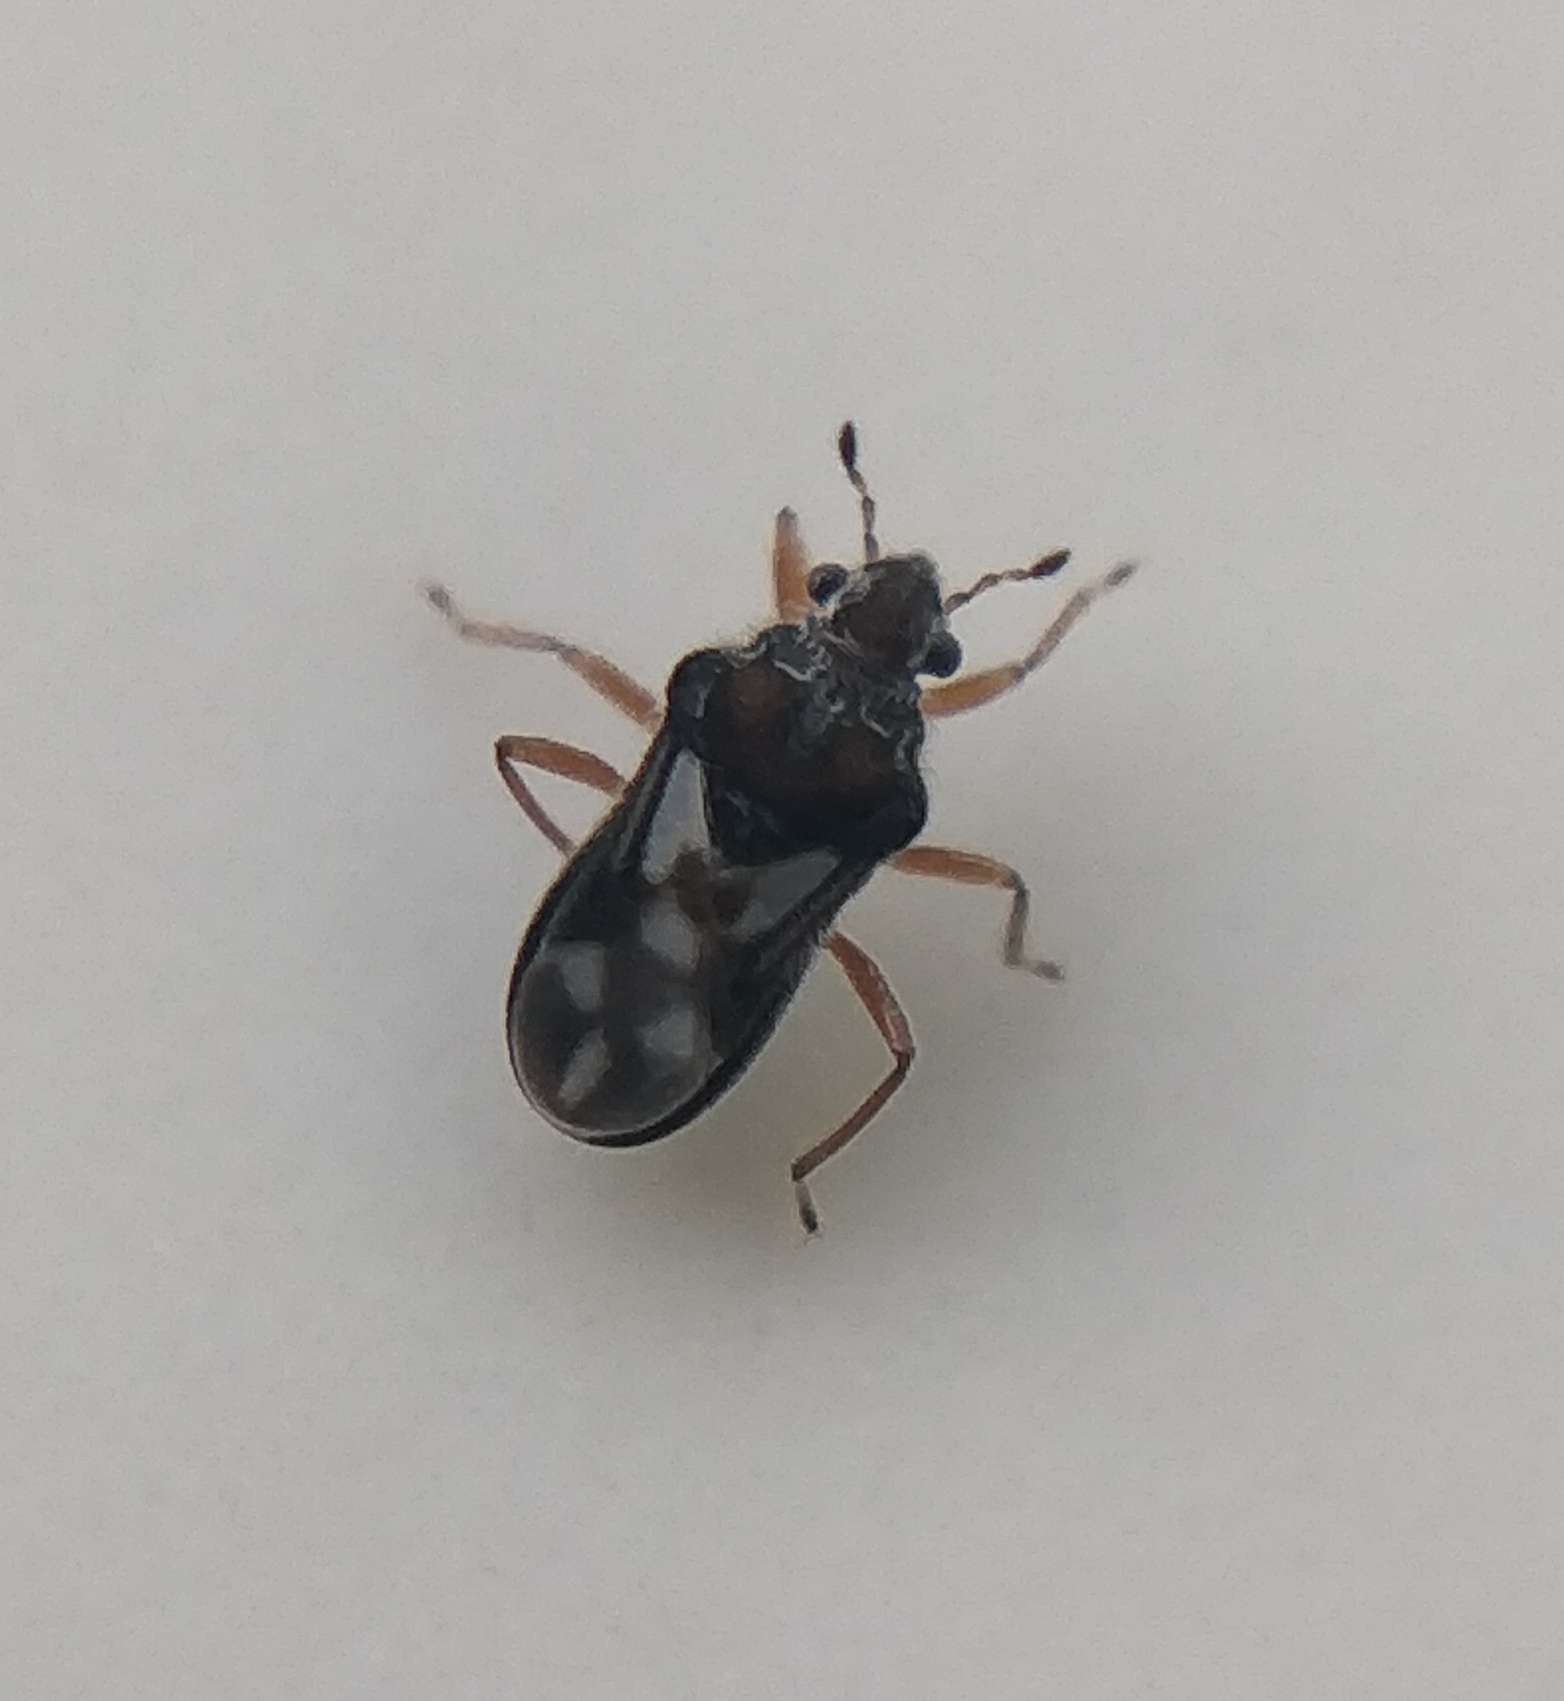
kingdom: Animalia
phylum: Arthropoda
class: Insecta
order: Hemiptera
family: Hebridae
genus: Merragata
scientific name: Merragata hebroides
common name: Velvet water bug
